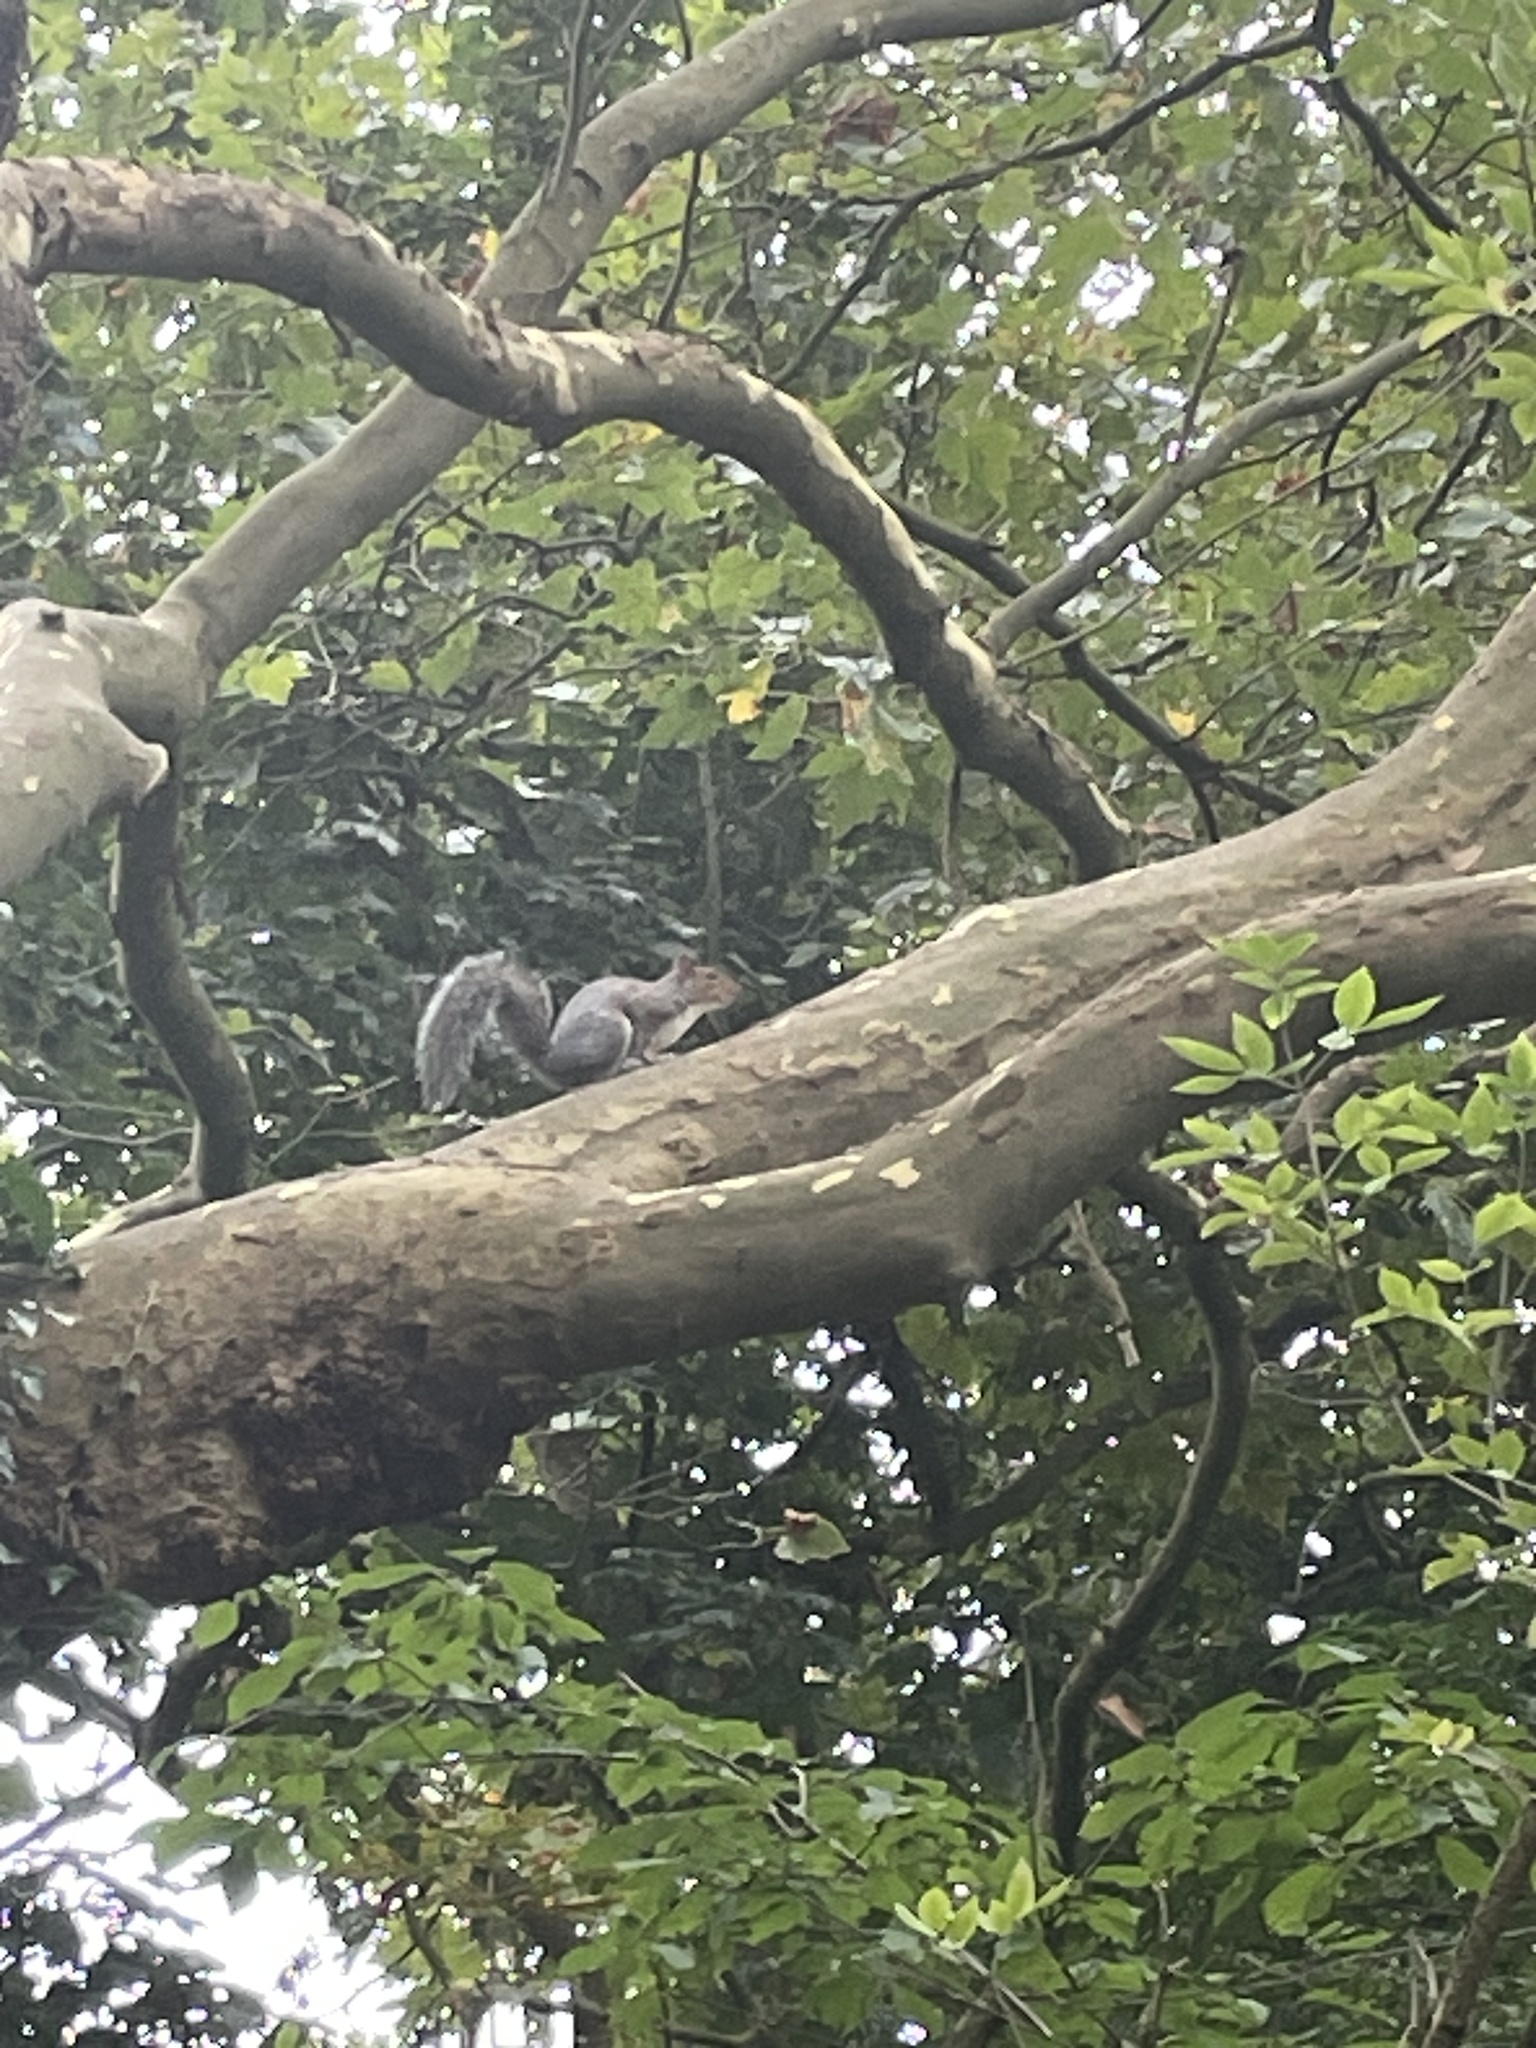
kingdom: Animalia
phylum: Chordata
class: Mammalia
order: Rodentia
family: Sciuridae
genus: Sciurus
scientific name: Sciurus carolinensis
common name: Eastern gray squirrel
